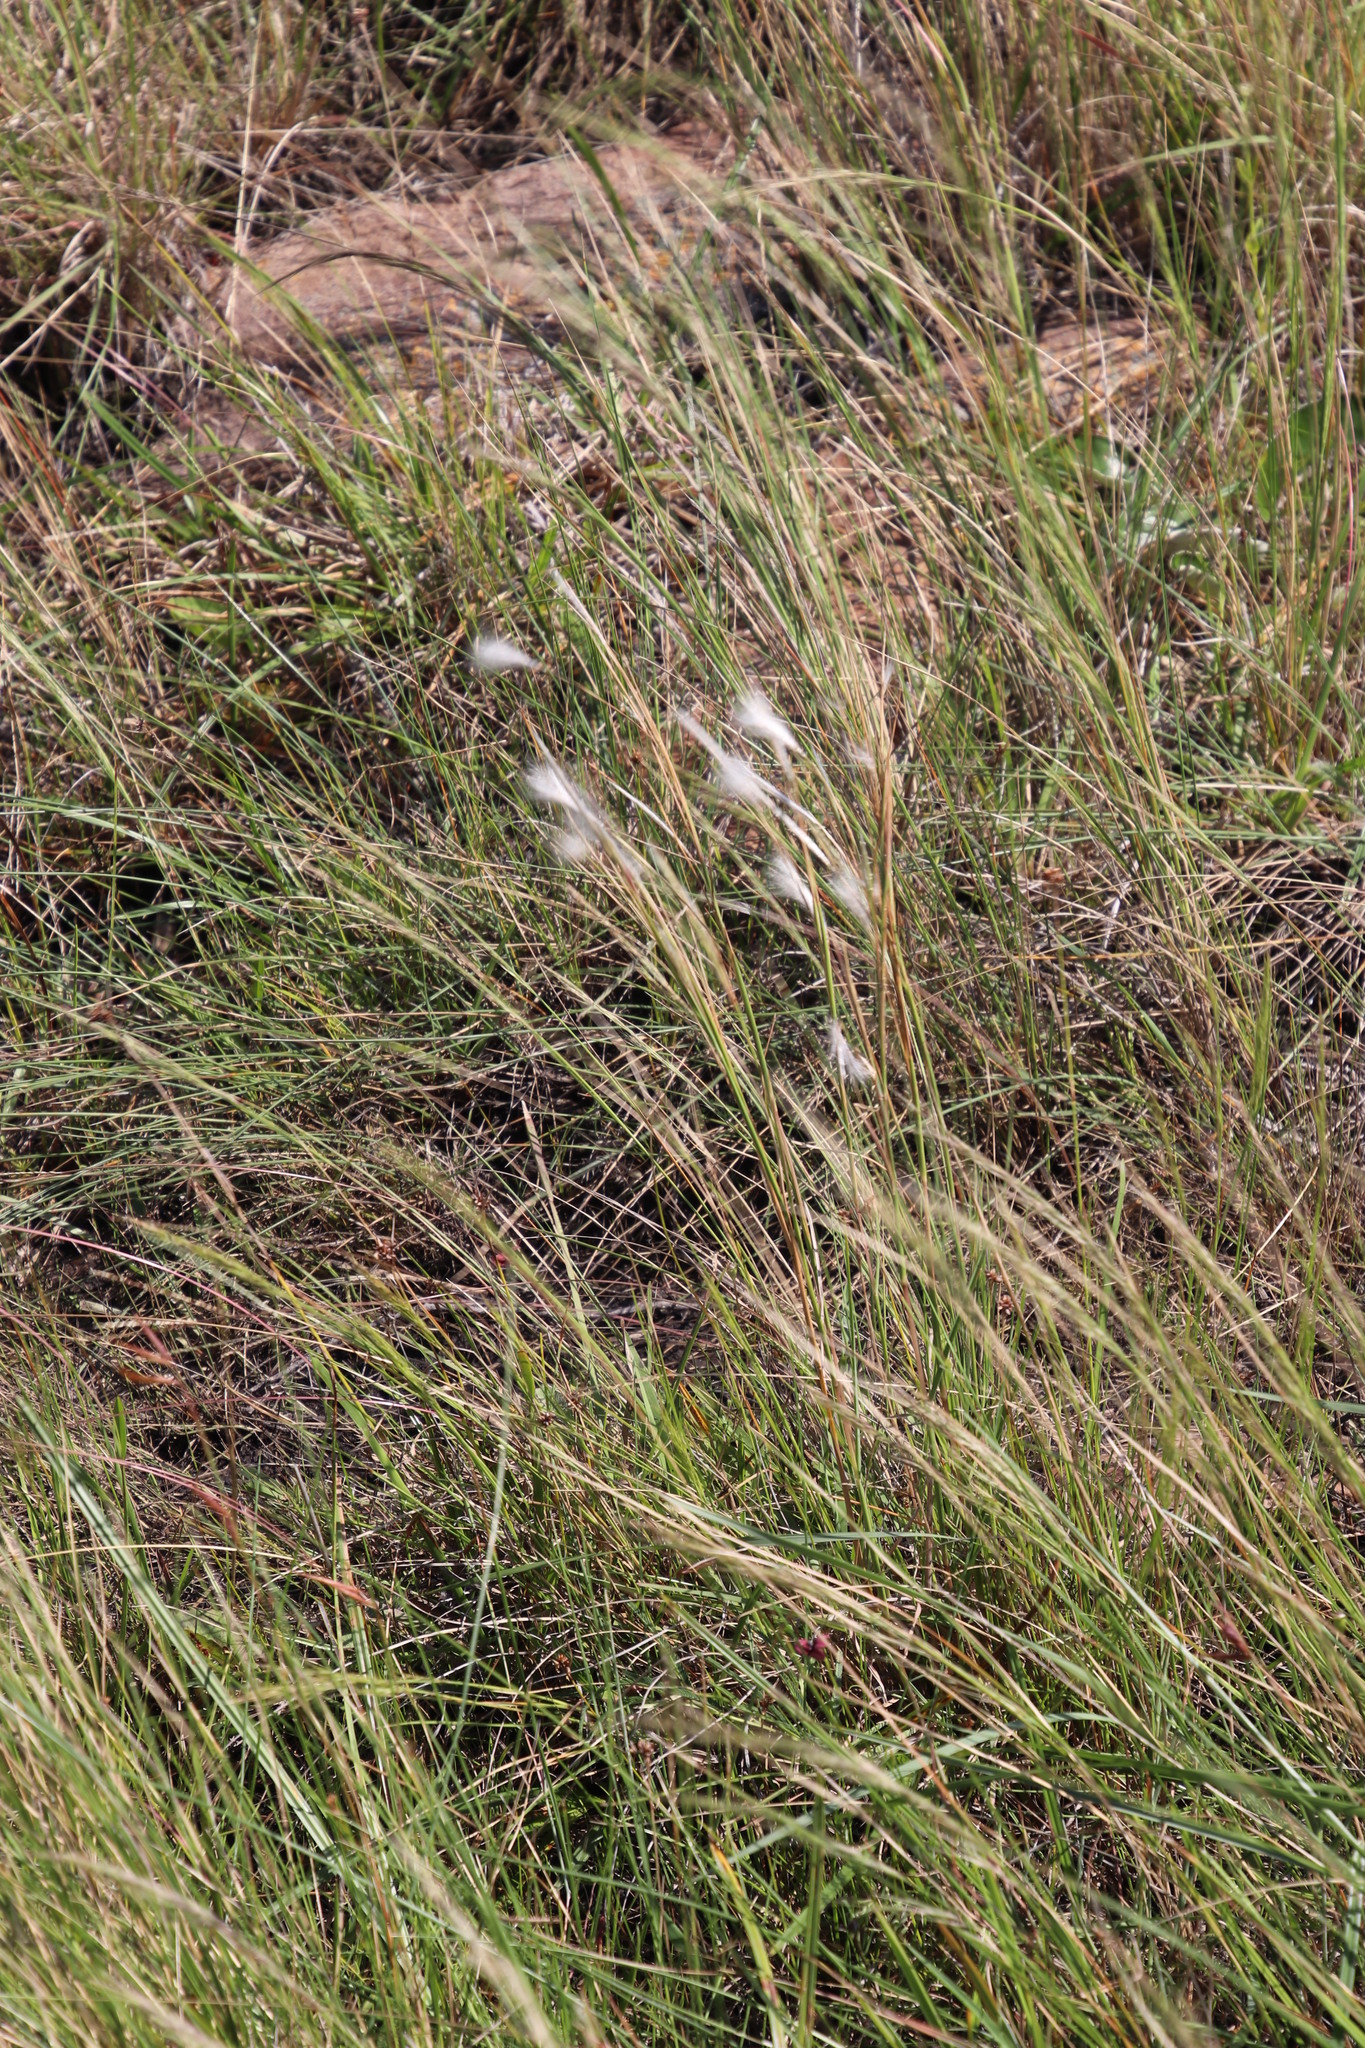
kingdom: Plantae
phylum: Tracheophyta
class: Liliopsida
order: Poales
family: Poaceae
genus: Andropogon
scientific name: Andropogon eucomus
